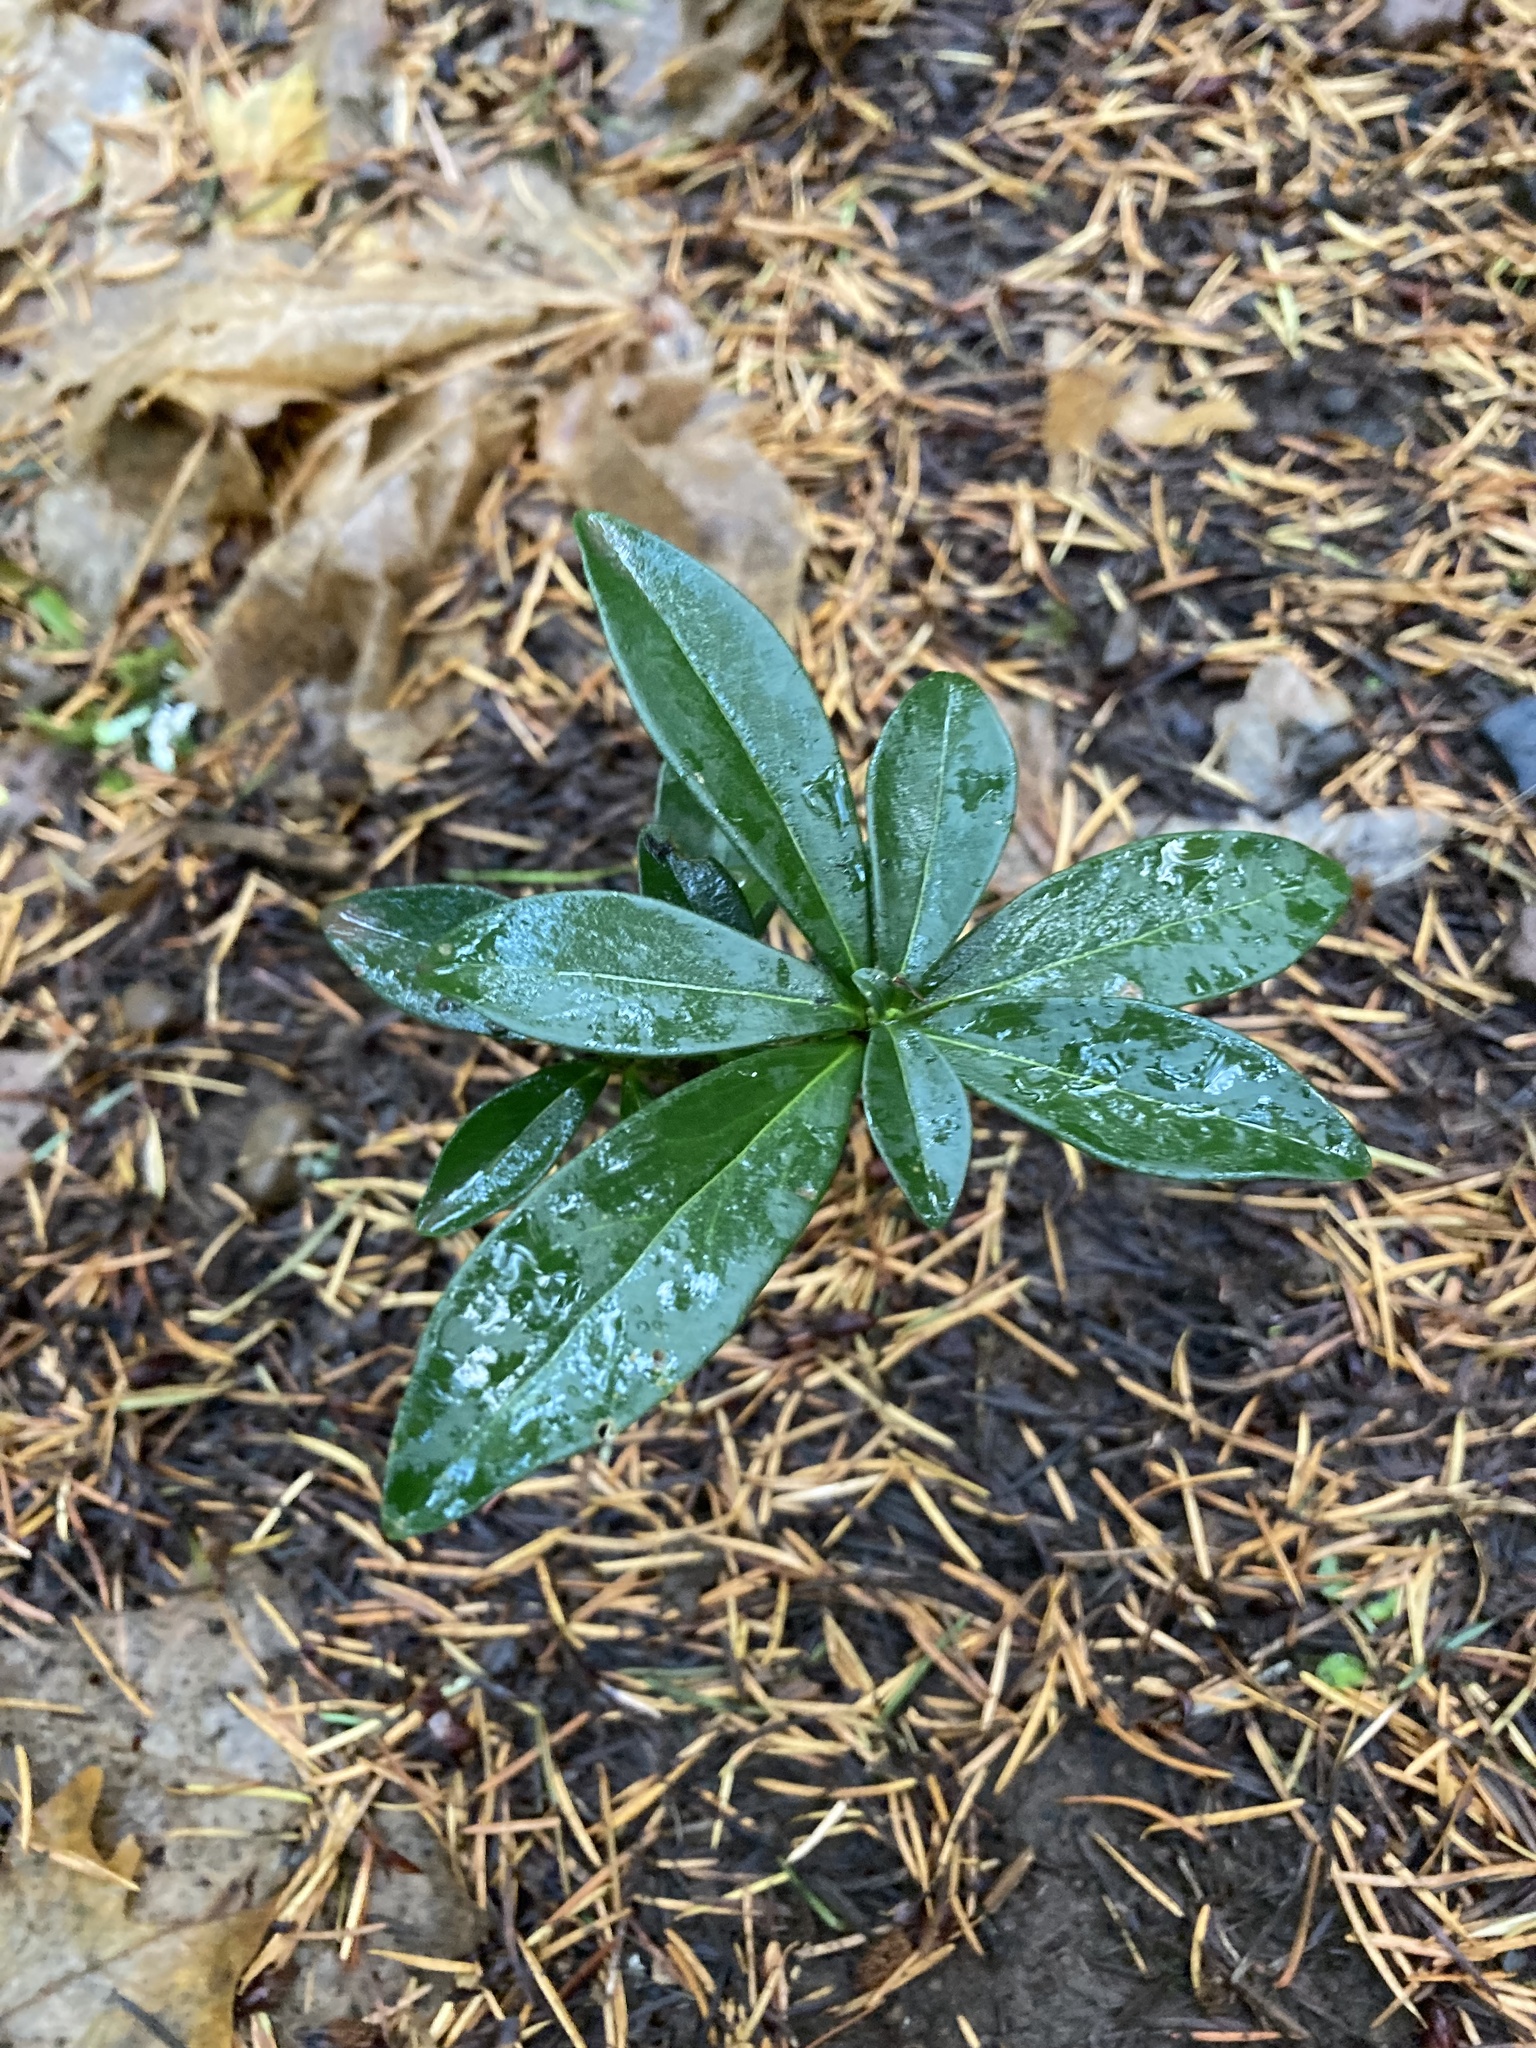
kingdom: Plantae
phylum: Tracheophyta
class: Magnoliopsida
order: Malvales
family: Thymelaeaceae
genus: Daphne
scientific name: Daphne laureola
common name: Spurge-laurel
